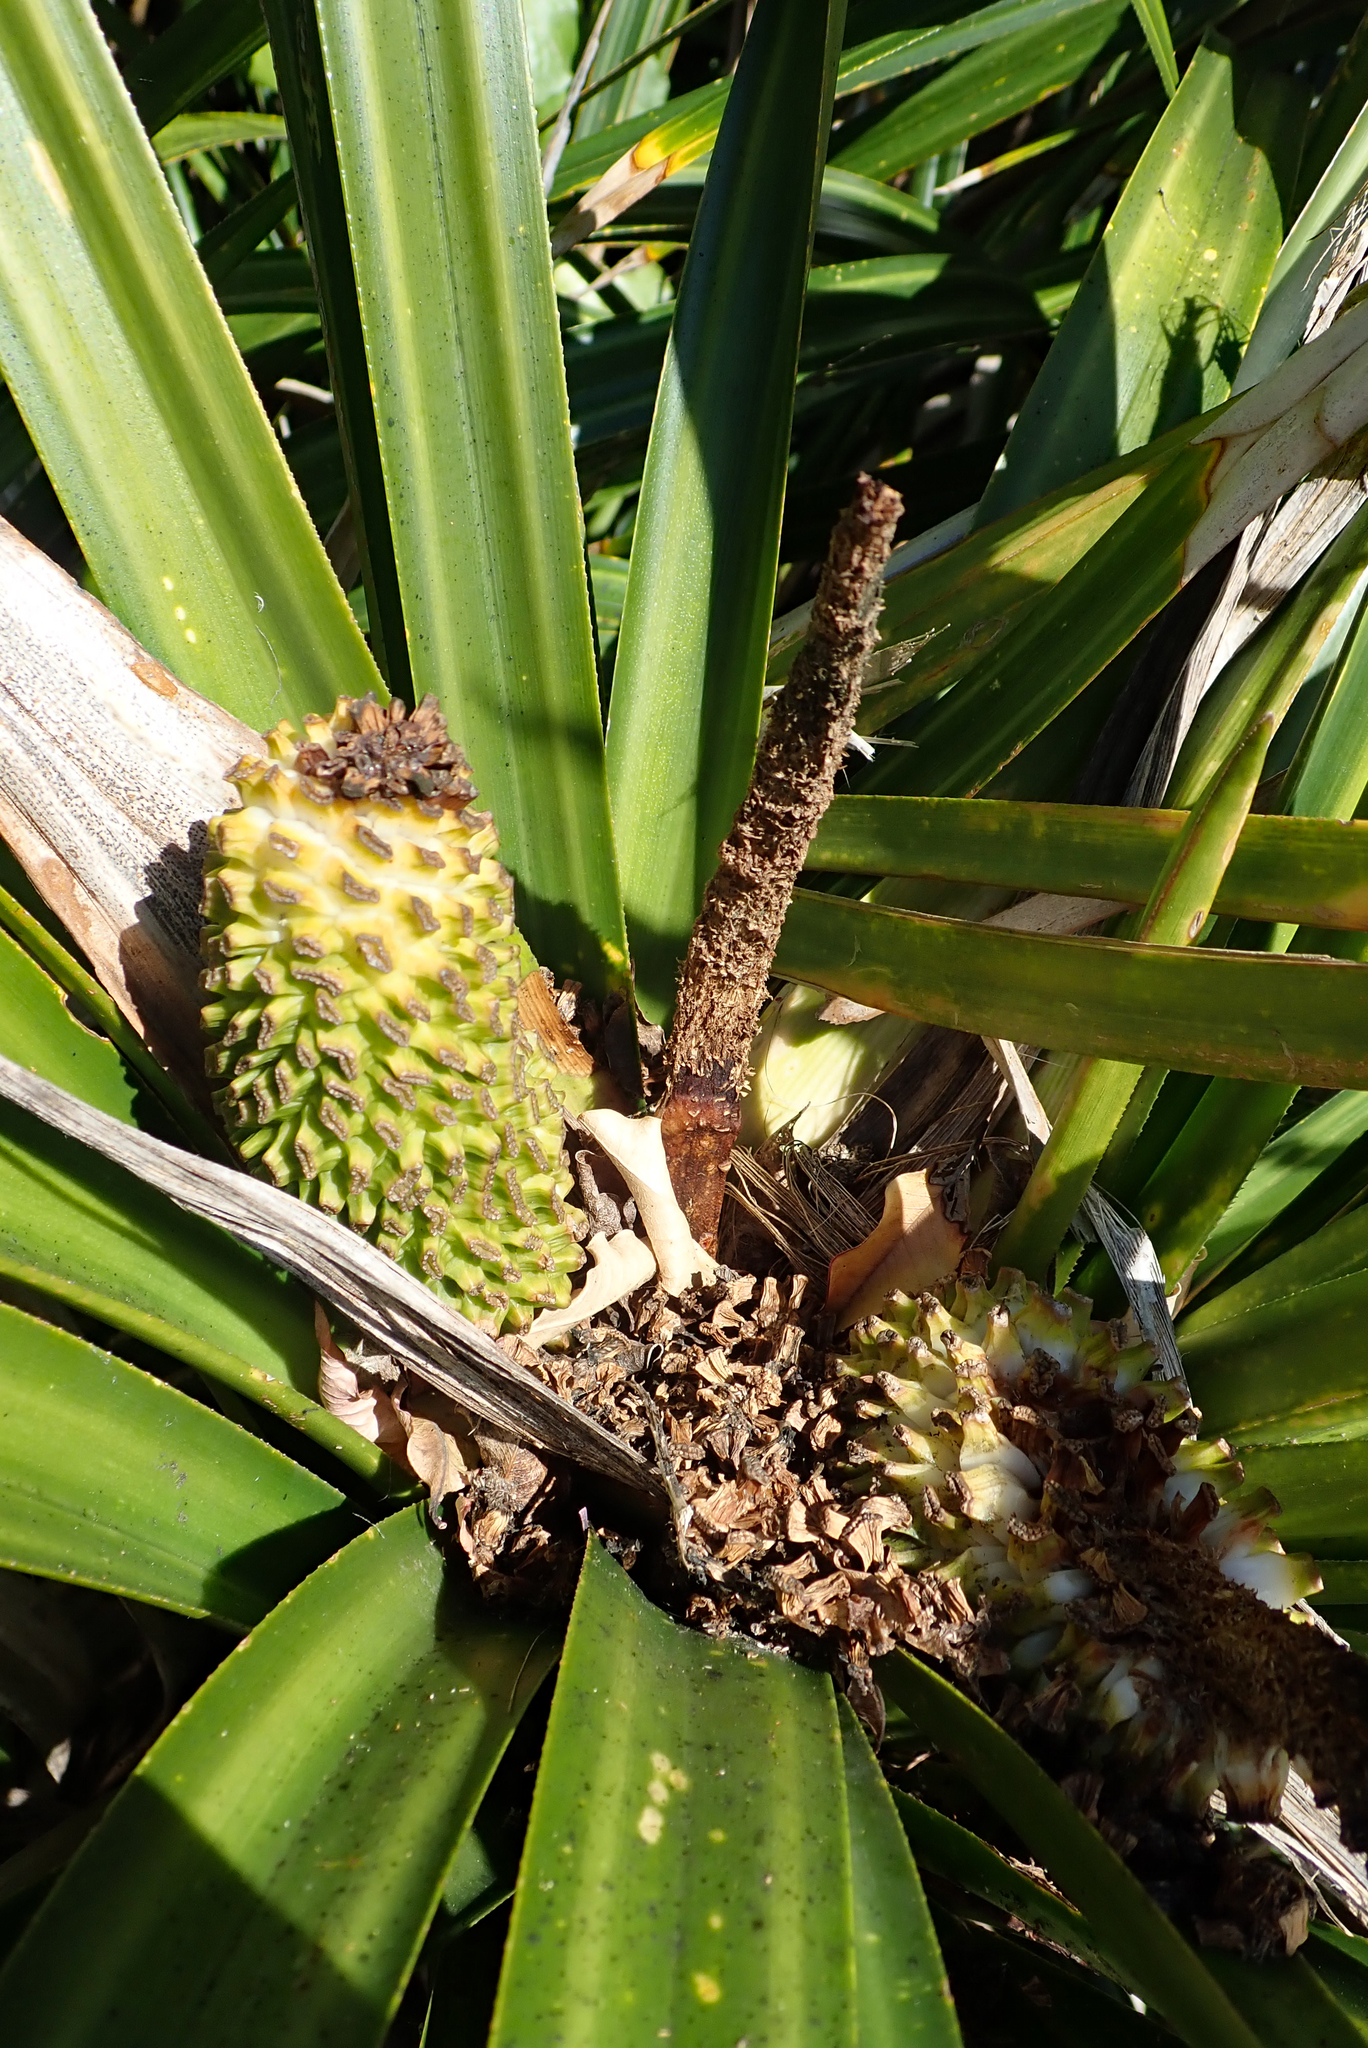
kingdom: Plantae
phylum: Tracheophyta
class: Liliopsida
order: Pandanales
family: Pandanaceae
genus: Freycinetia
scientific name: Freycinetia banksii
